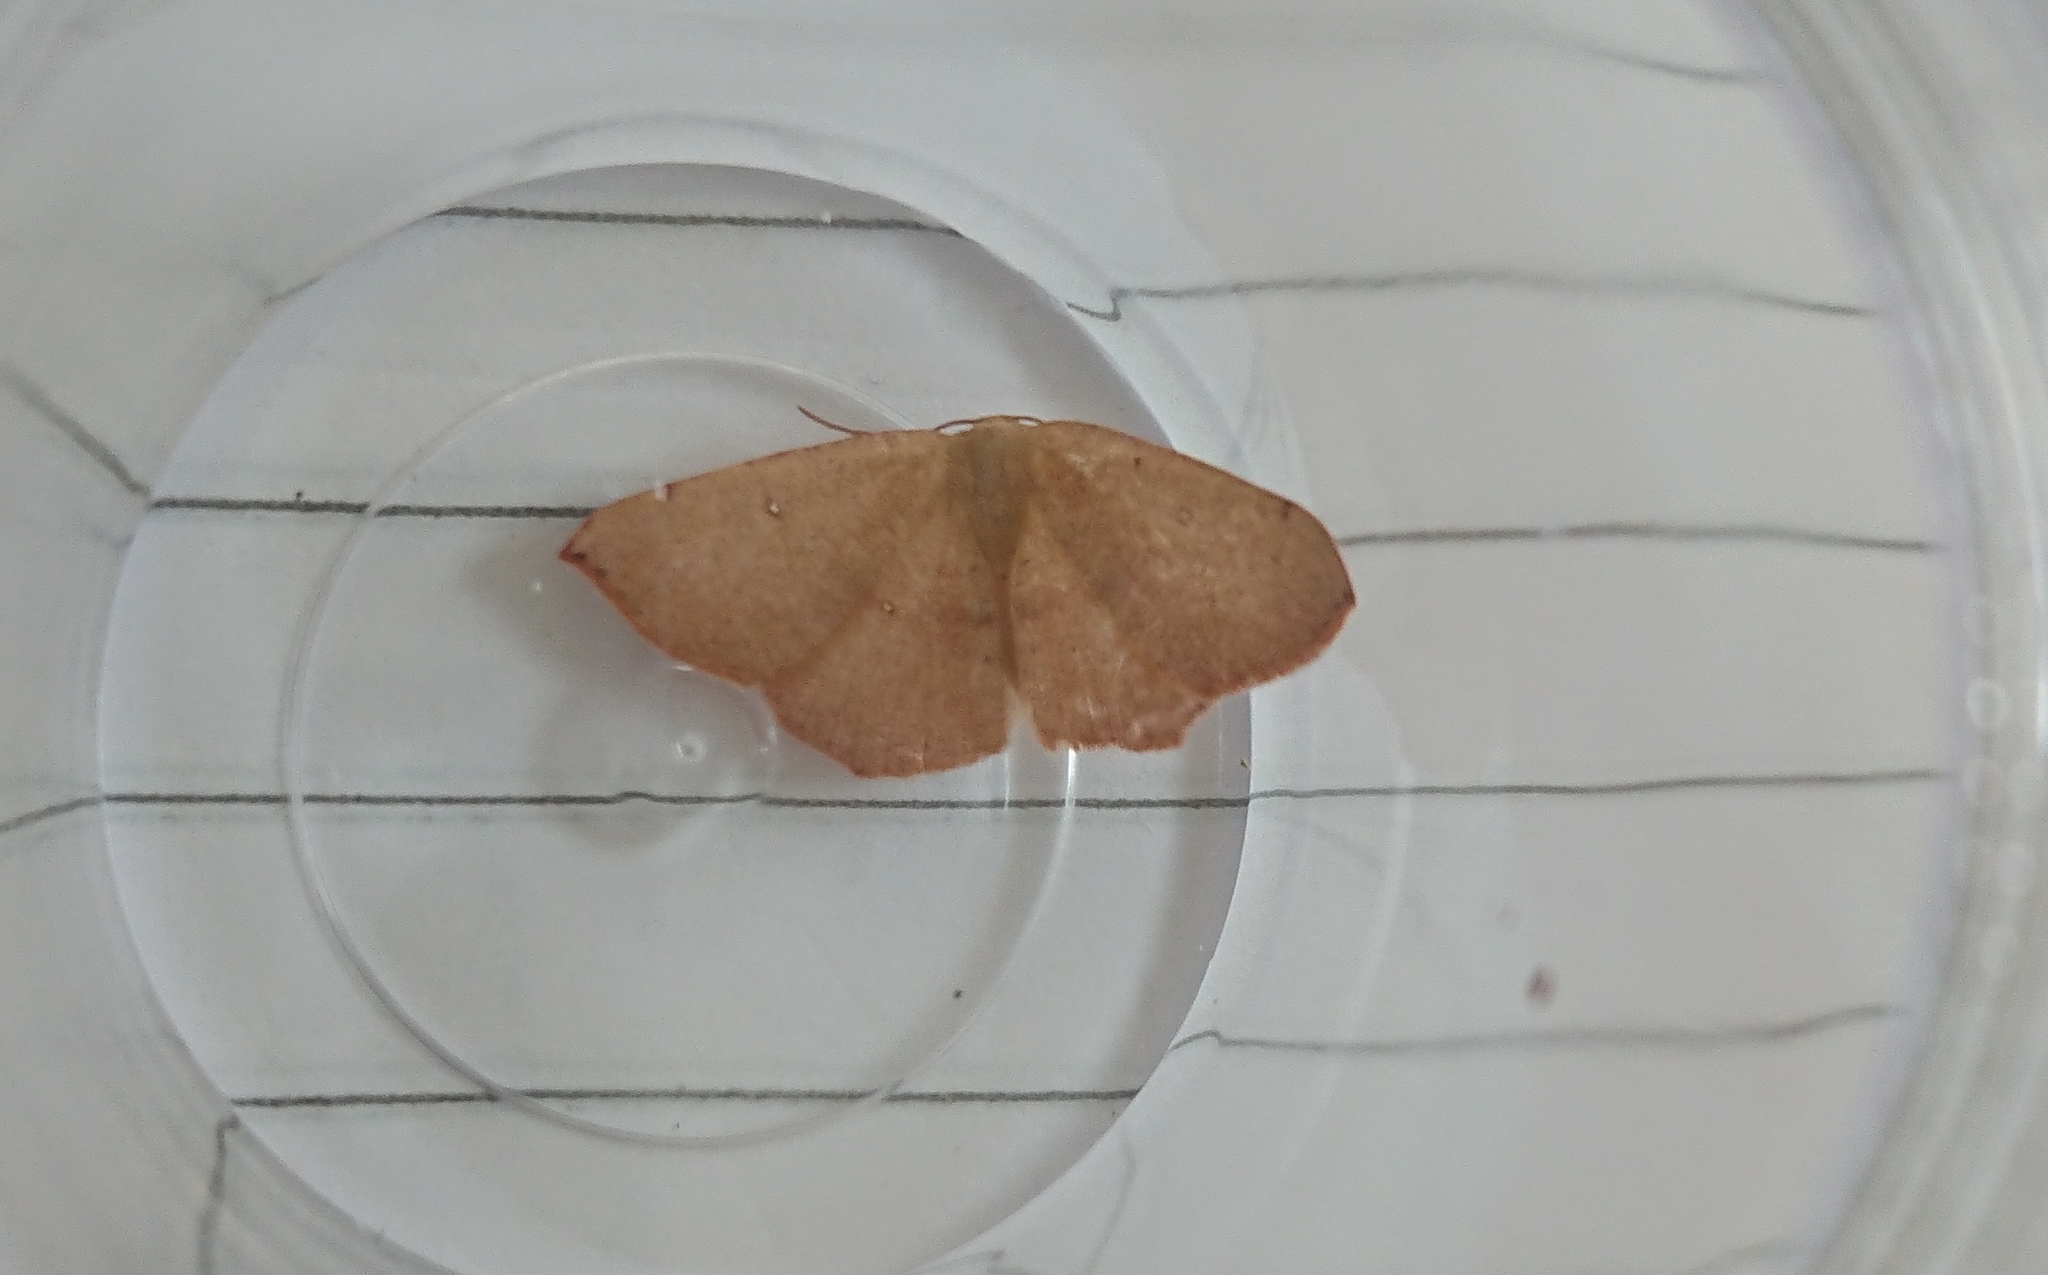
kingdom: Animalia
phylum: Arthropoda
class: Insecta
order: Lepidoptera
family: Geometridae
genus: Cyclophora
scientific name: Cyclophora puppillaria
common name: Blair's mocha
